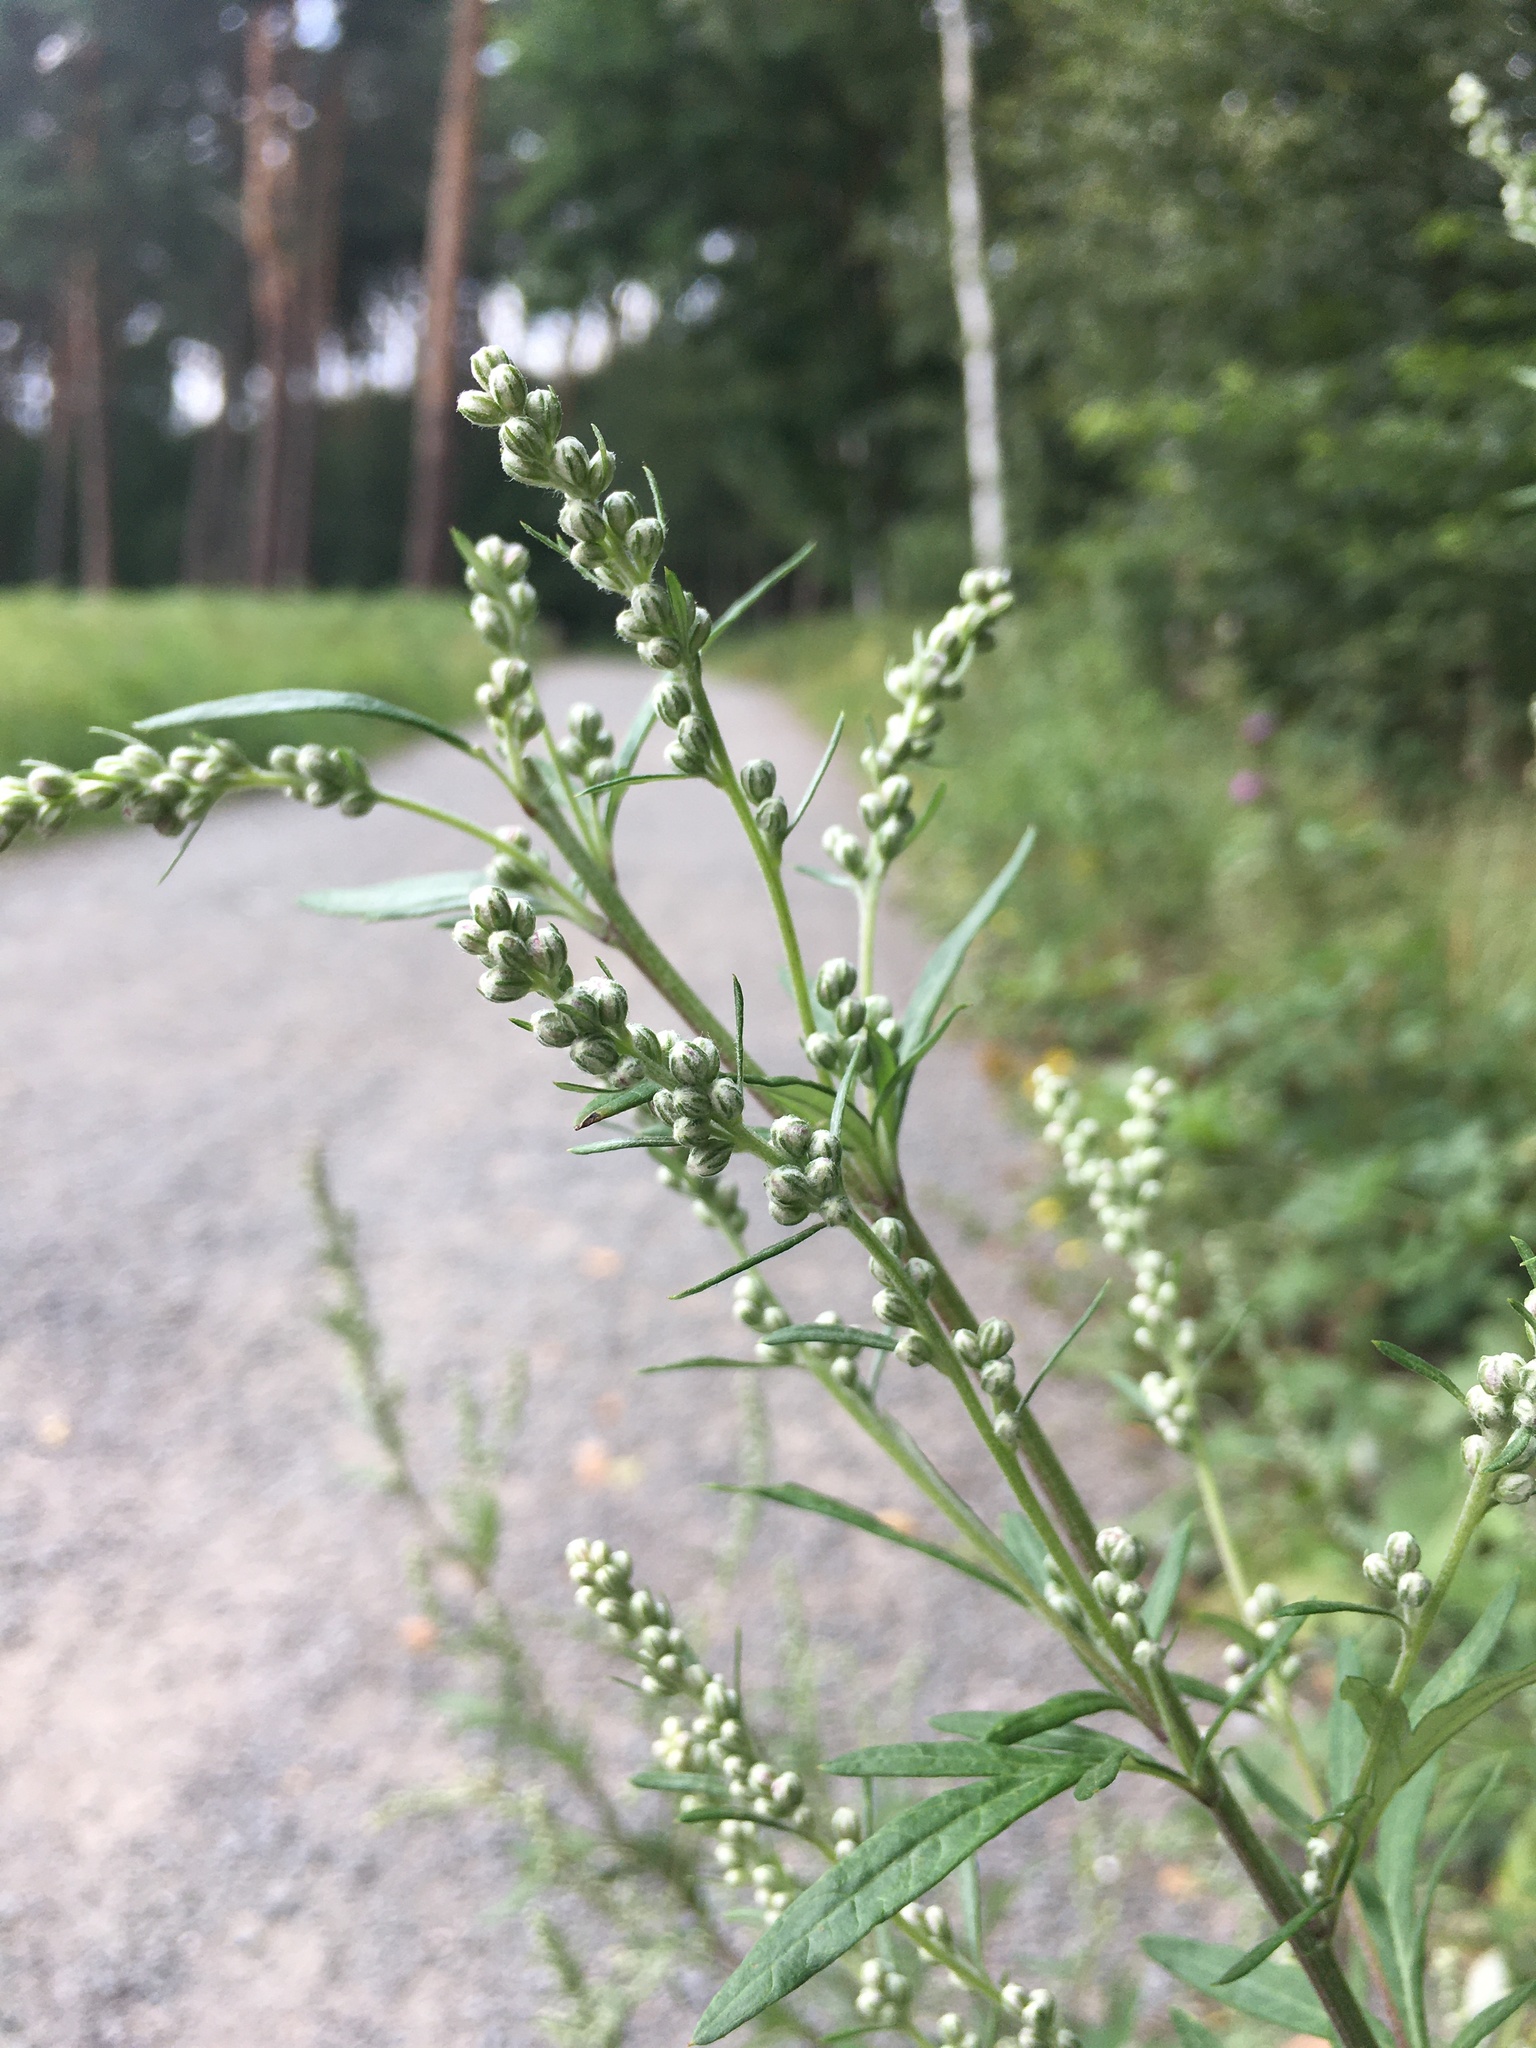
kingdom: Plantae
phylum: Tracheophyta
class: Magnoliopsida
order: Asterales
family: Asteraceae
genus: Artemisia
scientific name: Artemisia vulgaris
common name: Mugwort
